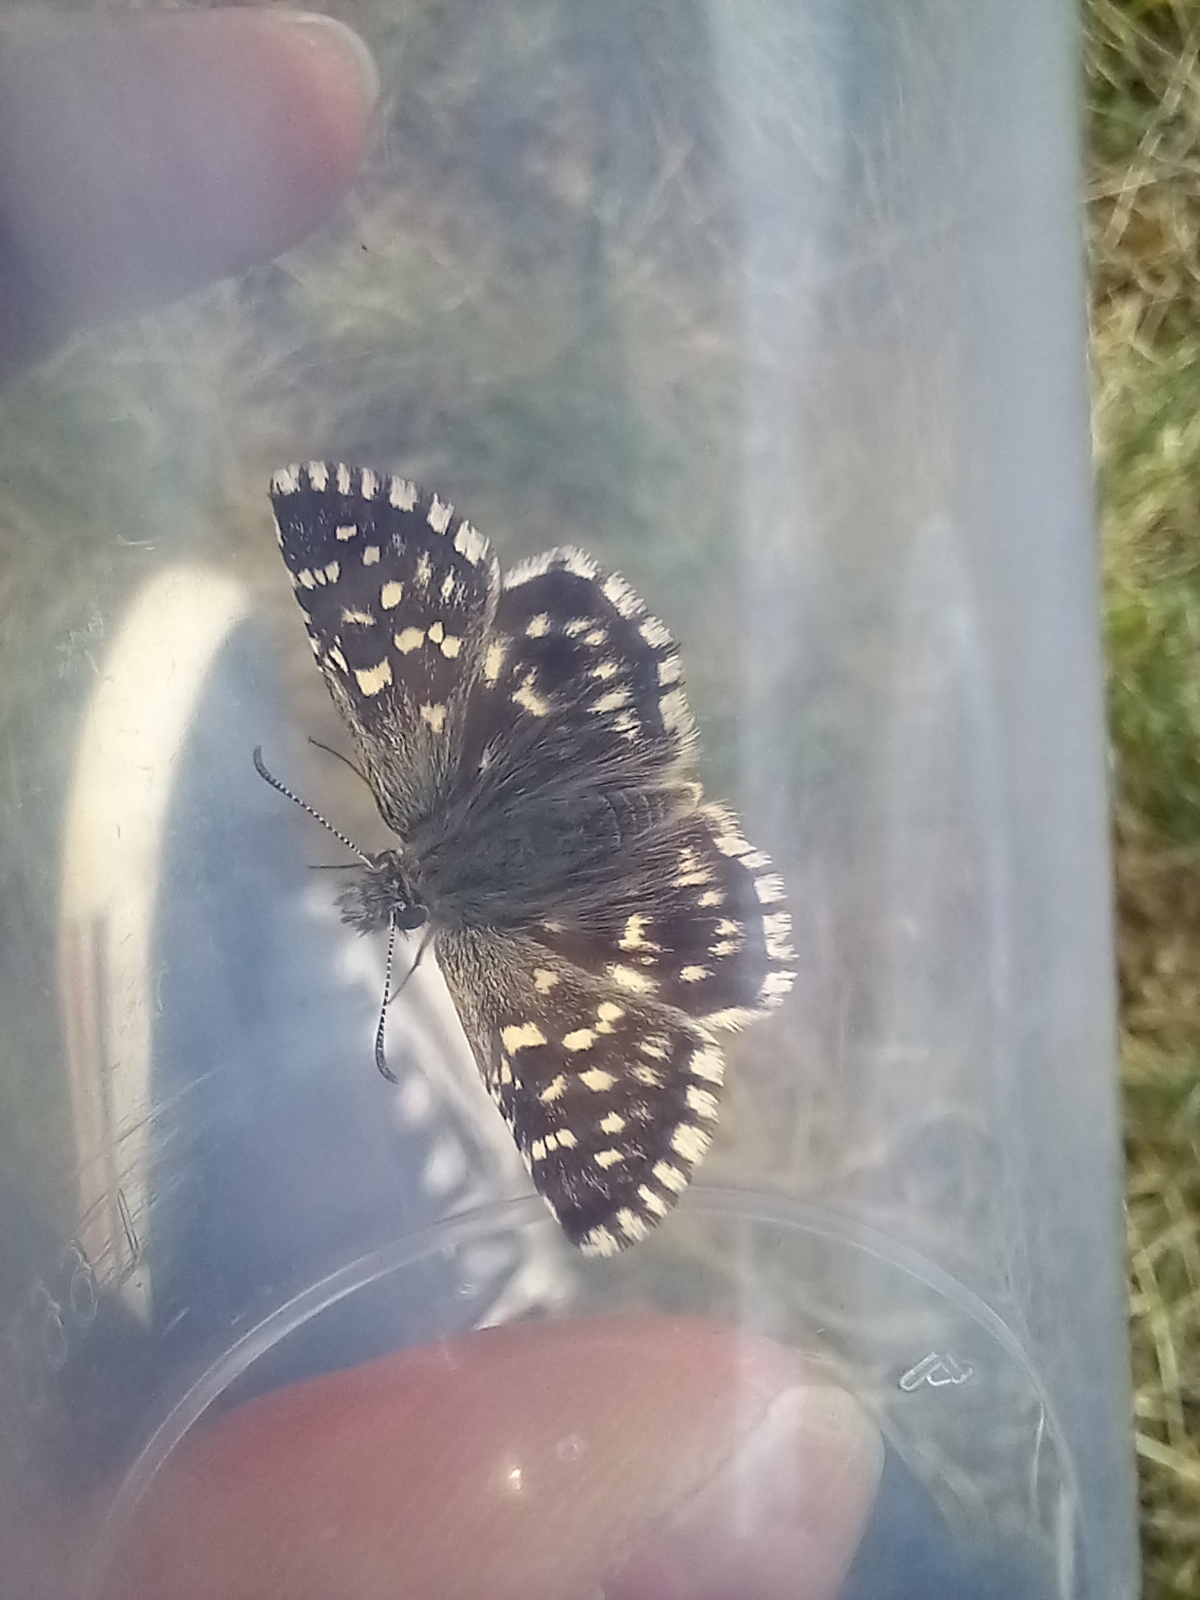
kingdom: Animalia
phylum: Arthropoda
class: Insecta
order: Lepidoptera
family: Hesperiidae
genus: Pyrgus
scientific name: Pyrgus malvae
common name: Grizzled skipper
